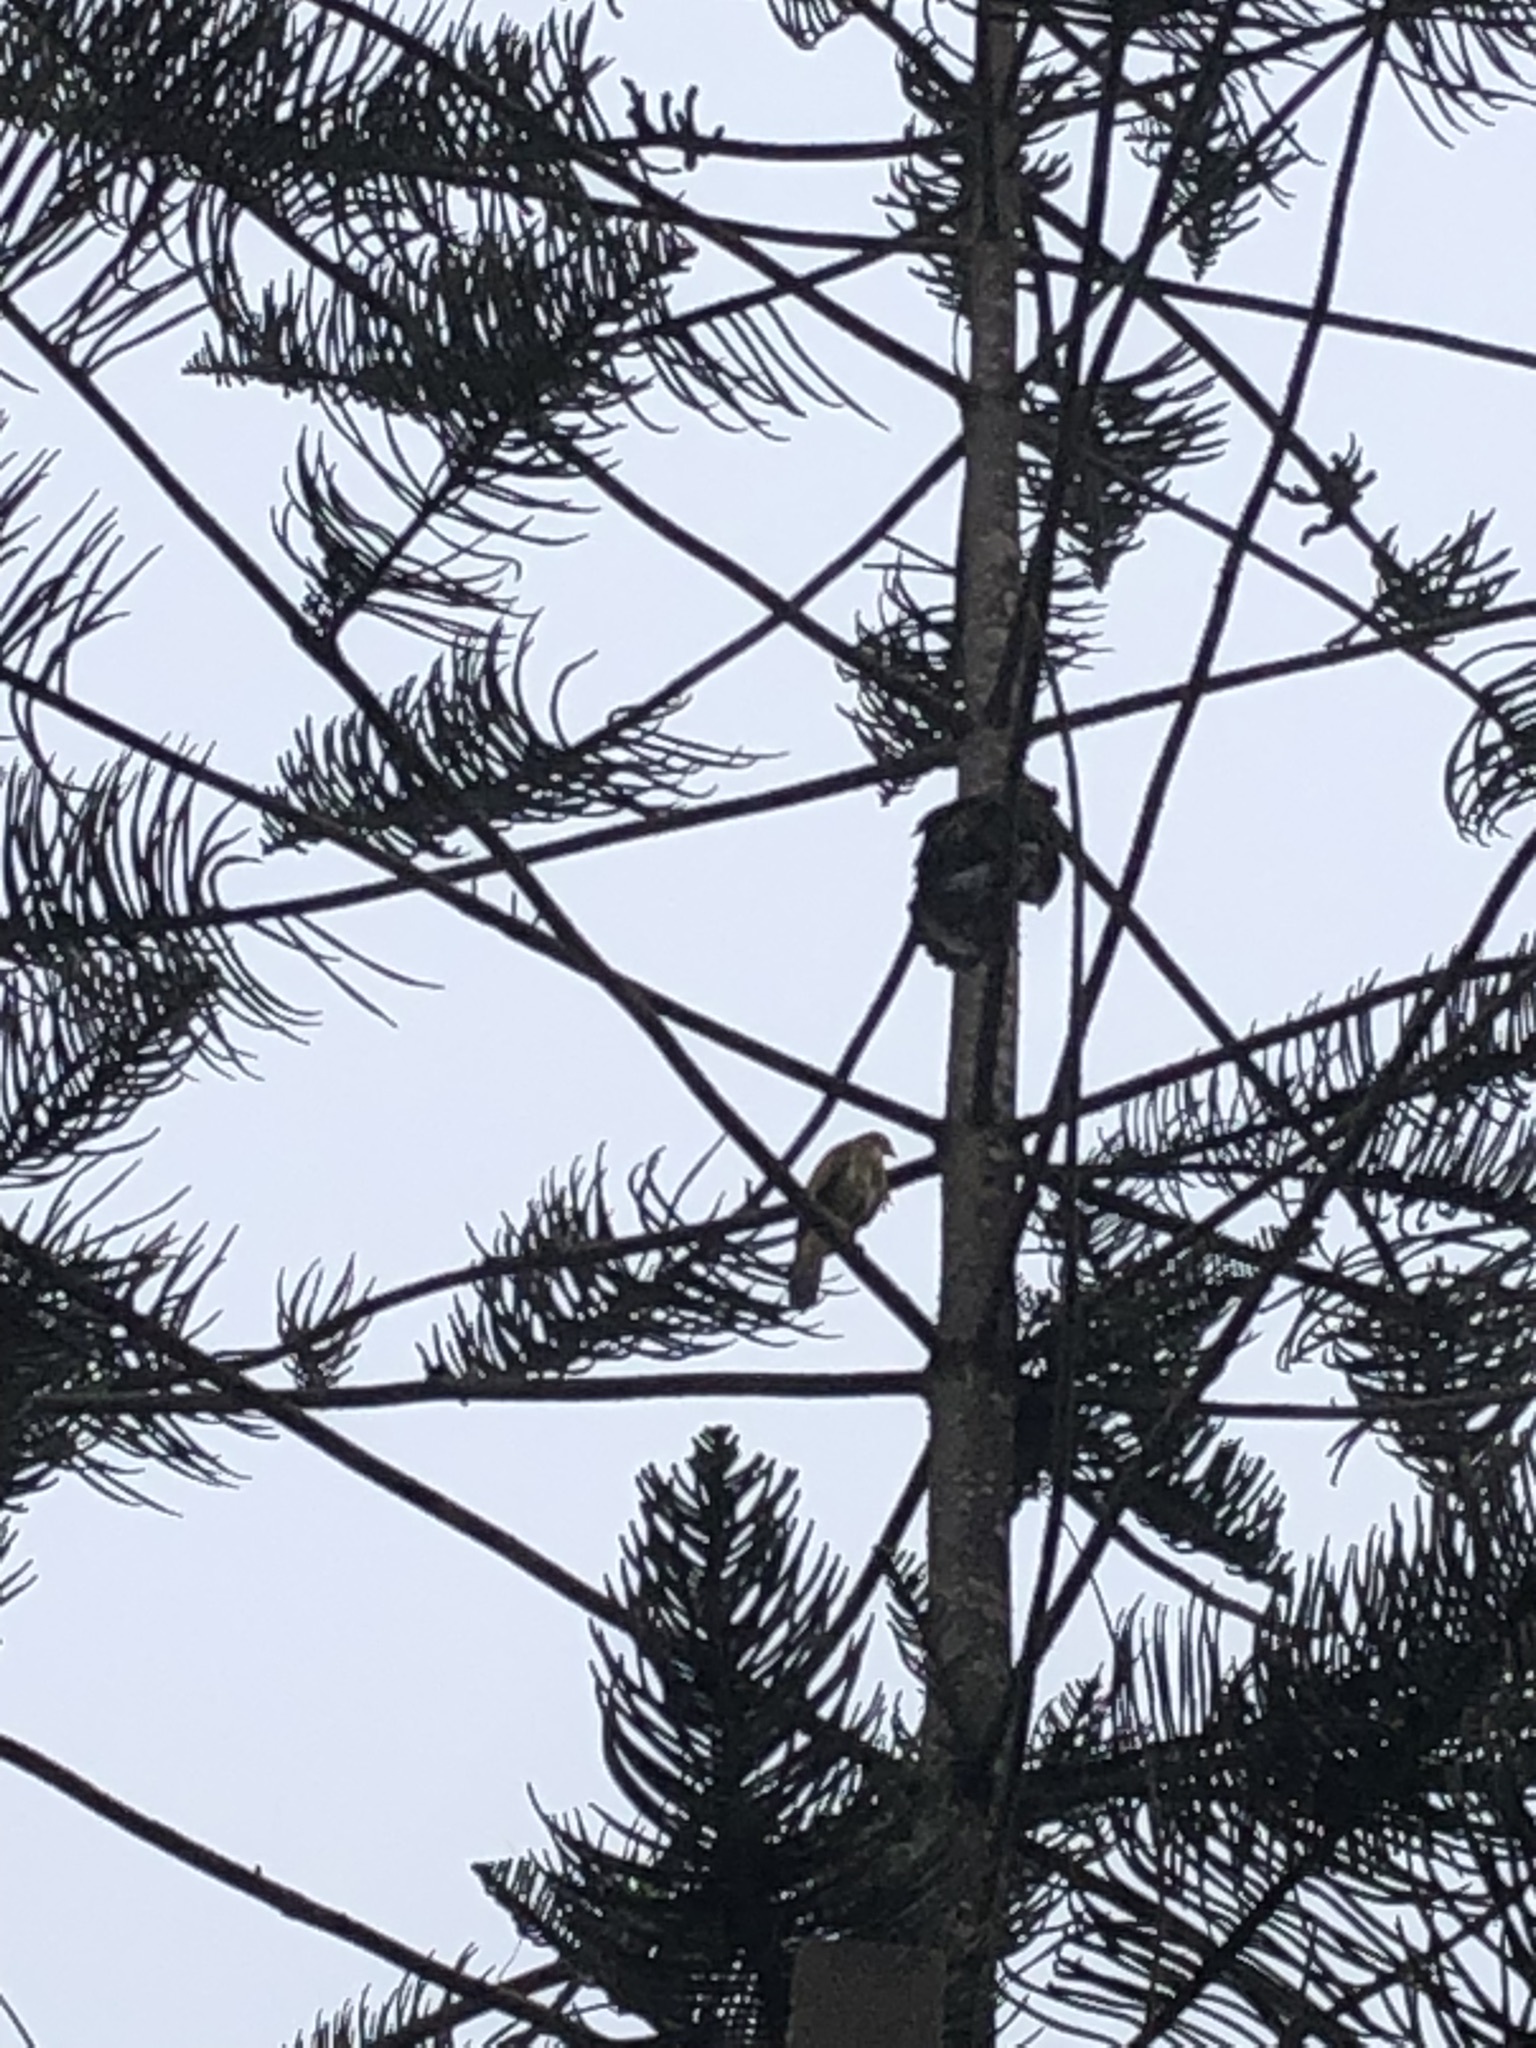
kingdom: Animalia
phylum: Chordata
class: Aves
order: Accipitriformes
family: Accipitridae
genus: Parabuteo
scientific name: Parabuteo unicinctus
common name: Harris's hawk
